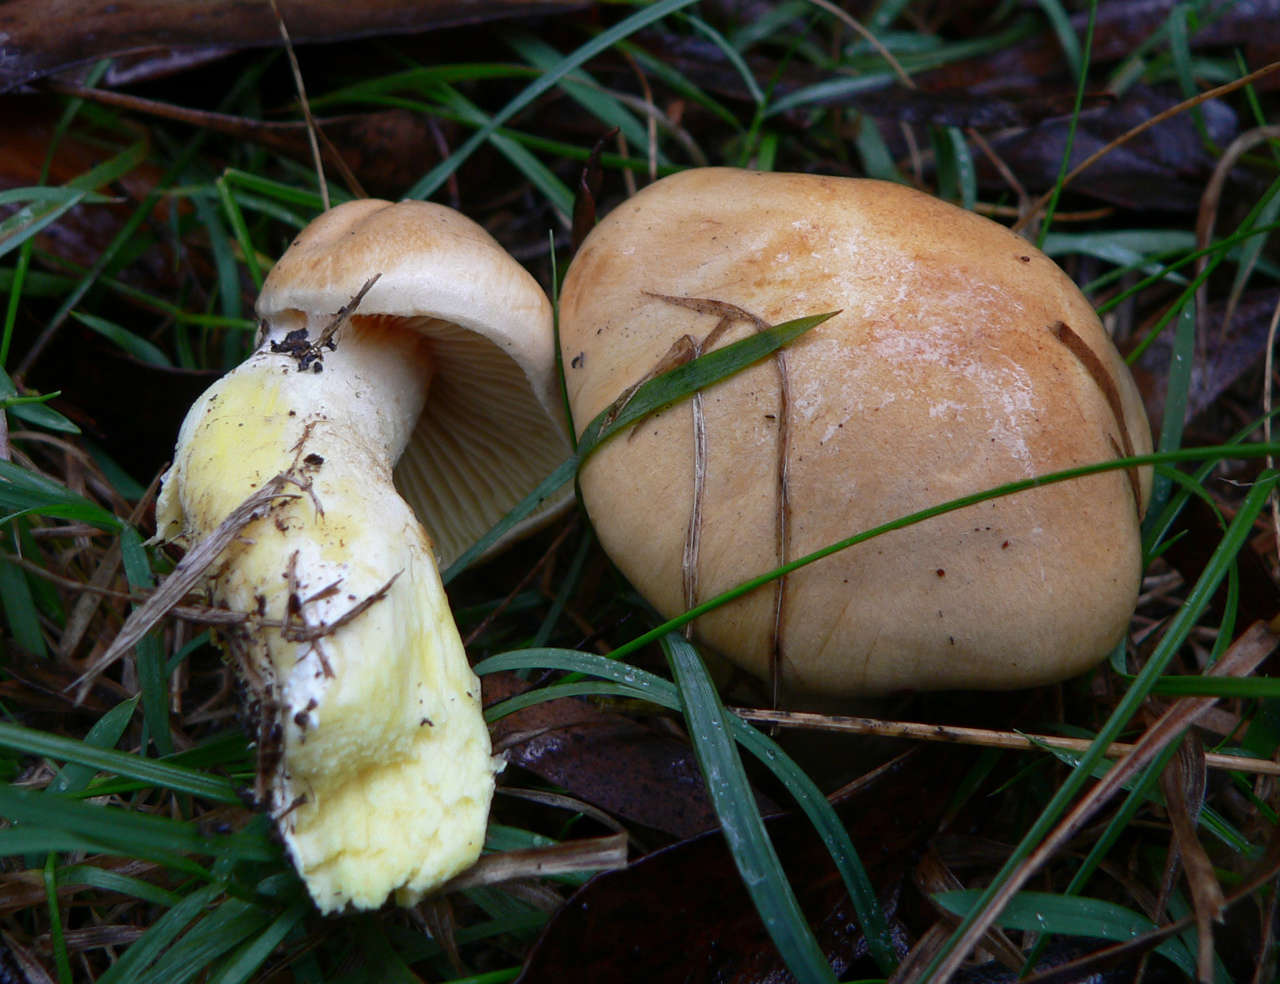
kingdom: Fungi
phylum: Basidiomycota
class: Agaricomycetes
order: Agaricales
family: Cortinariaceae
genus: Phlegmacium
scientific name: Phlegmacium memoria-annae
